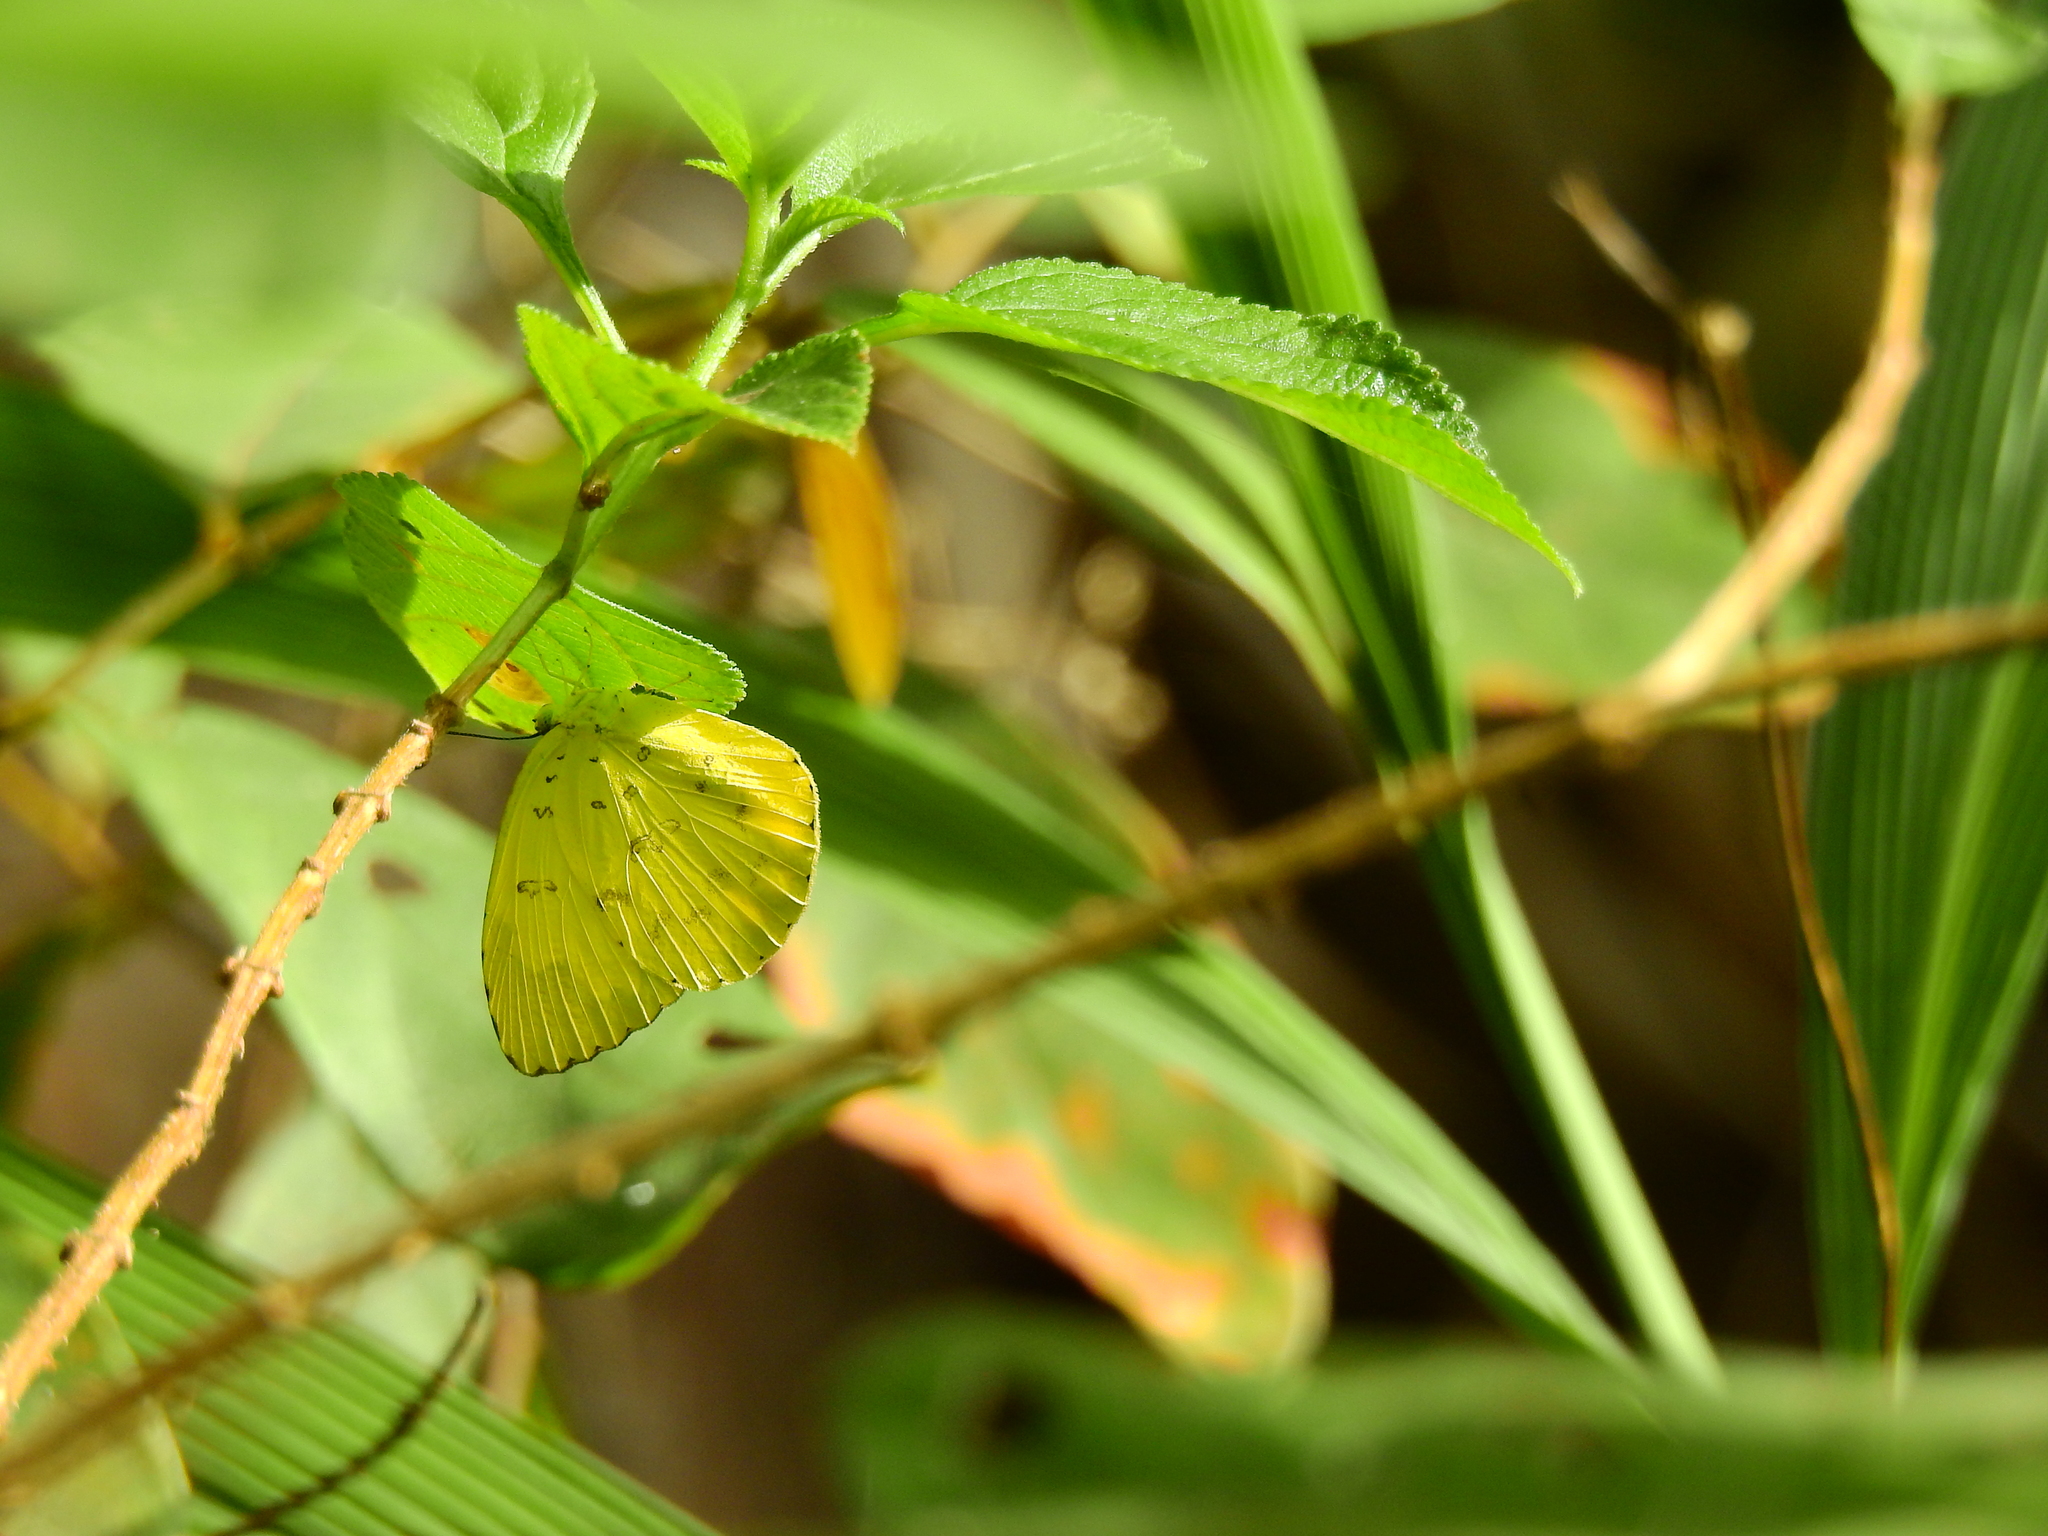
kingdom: Animalia
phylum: Arthropoda
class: Insecta
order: Lepidoptera
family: Pieridae
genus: Eurema
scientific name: Eurema blanda
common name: Three-spot grass yellow
